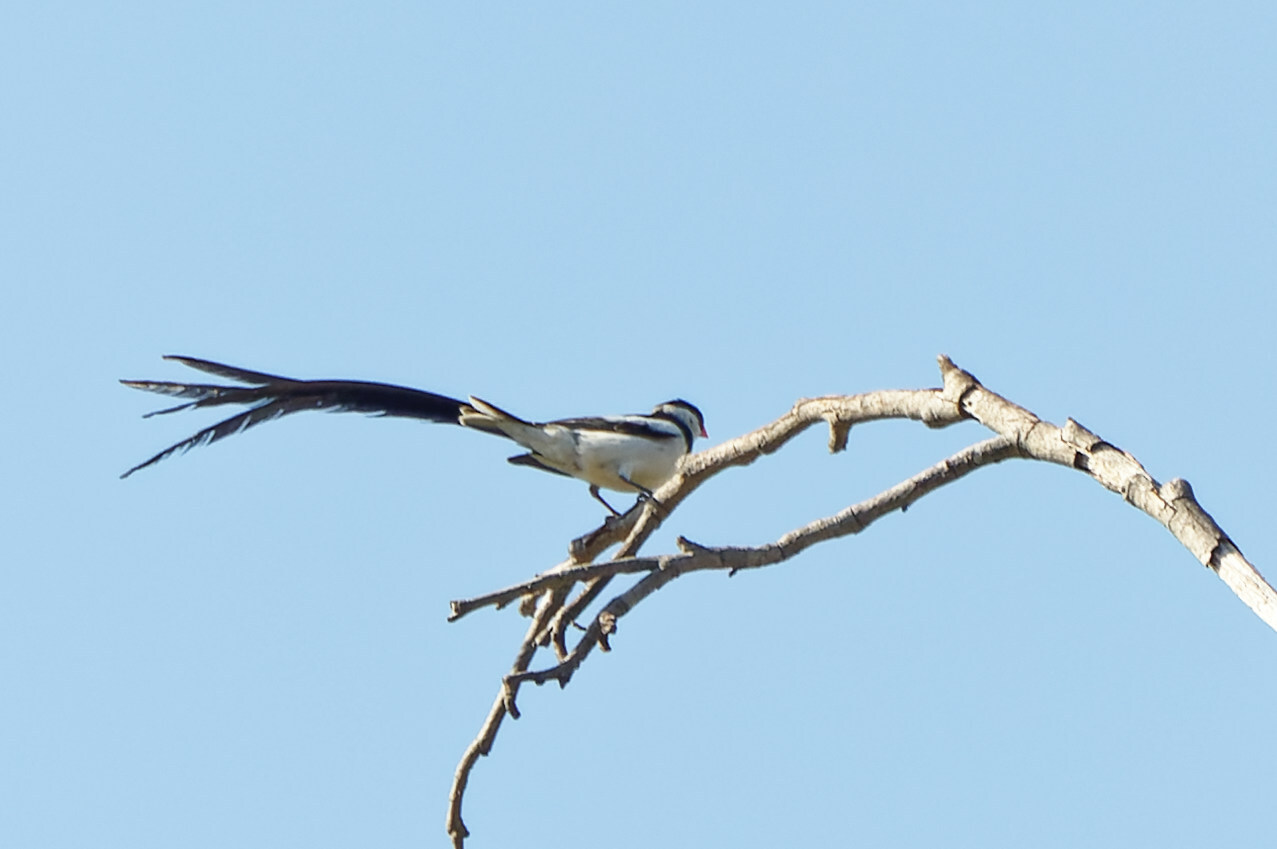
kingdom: Animalia
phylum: Chordata
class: Aves
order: Passeriformes
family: Viduidae
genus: Vidua
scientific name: Vidua macroura
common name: Pin-tailed whydah
